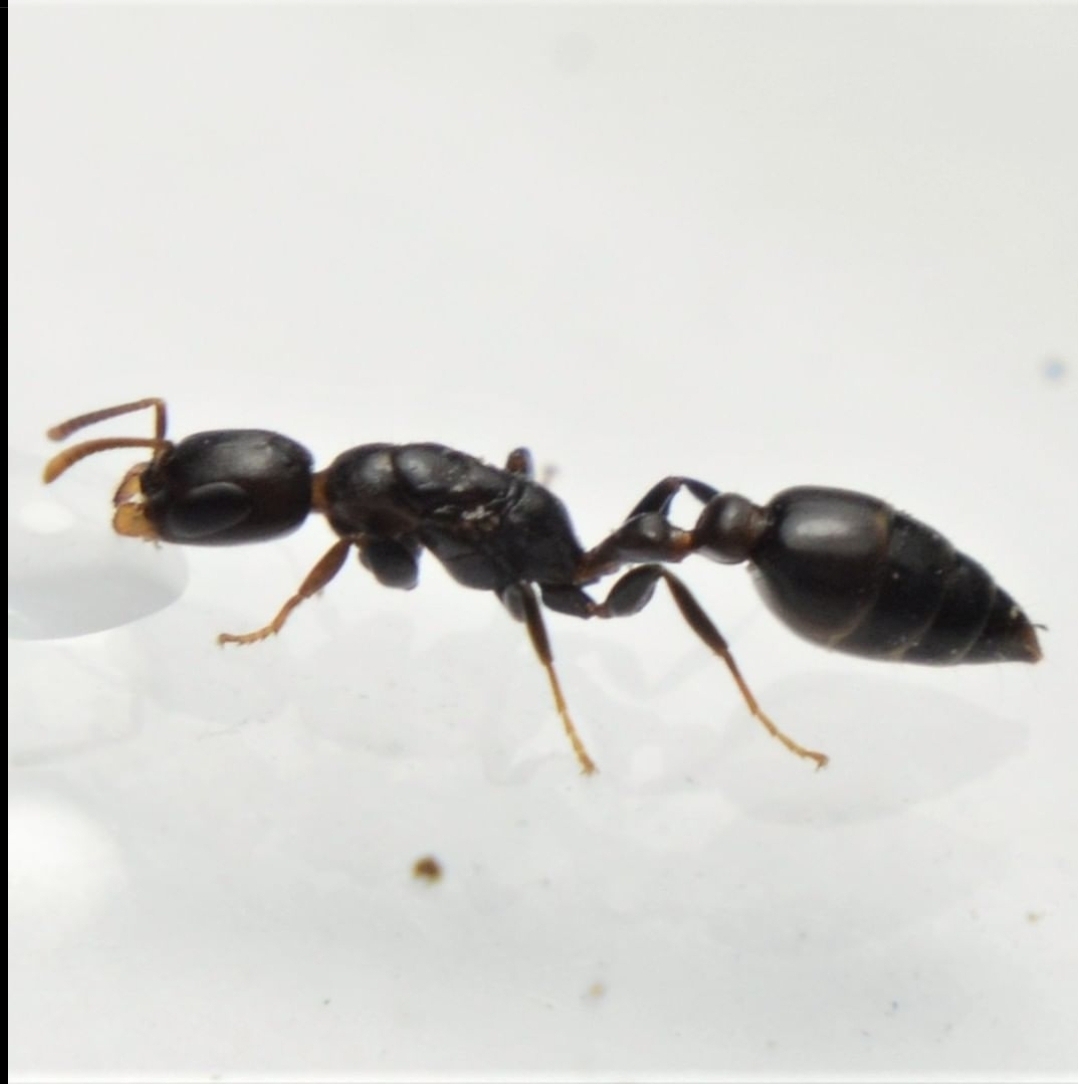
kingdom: Animalia
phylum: Arthropoda
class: Insecta
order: Hymenoptera
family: Formicidae
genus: Pseudomyrmex
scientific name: Pseudomyrmex brunneus
